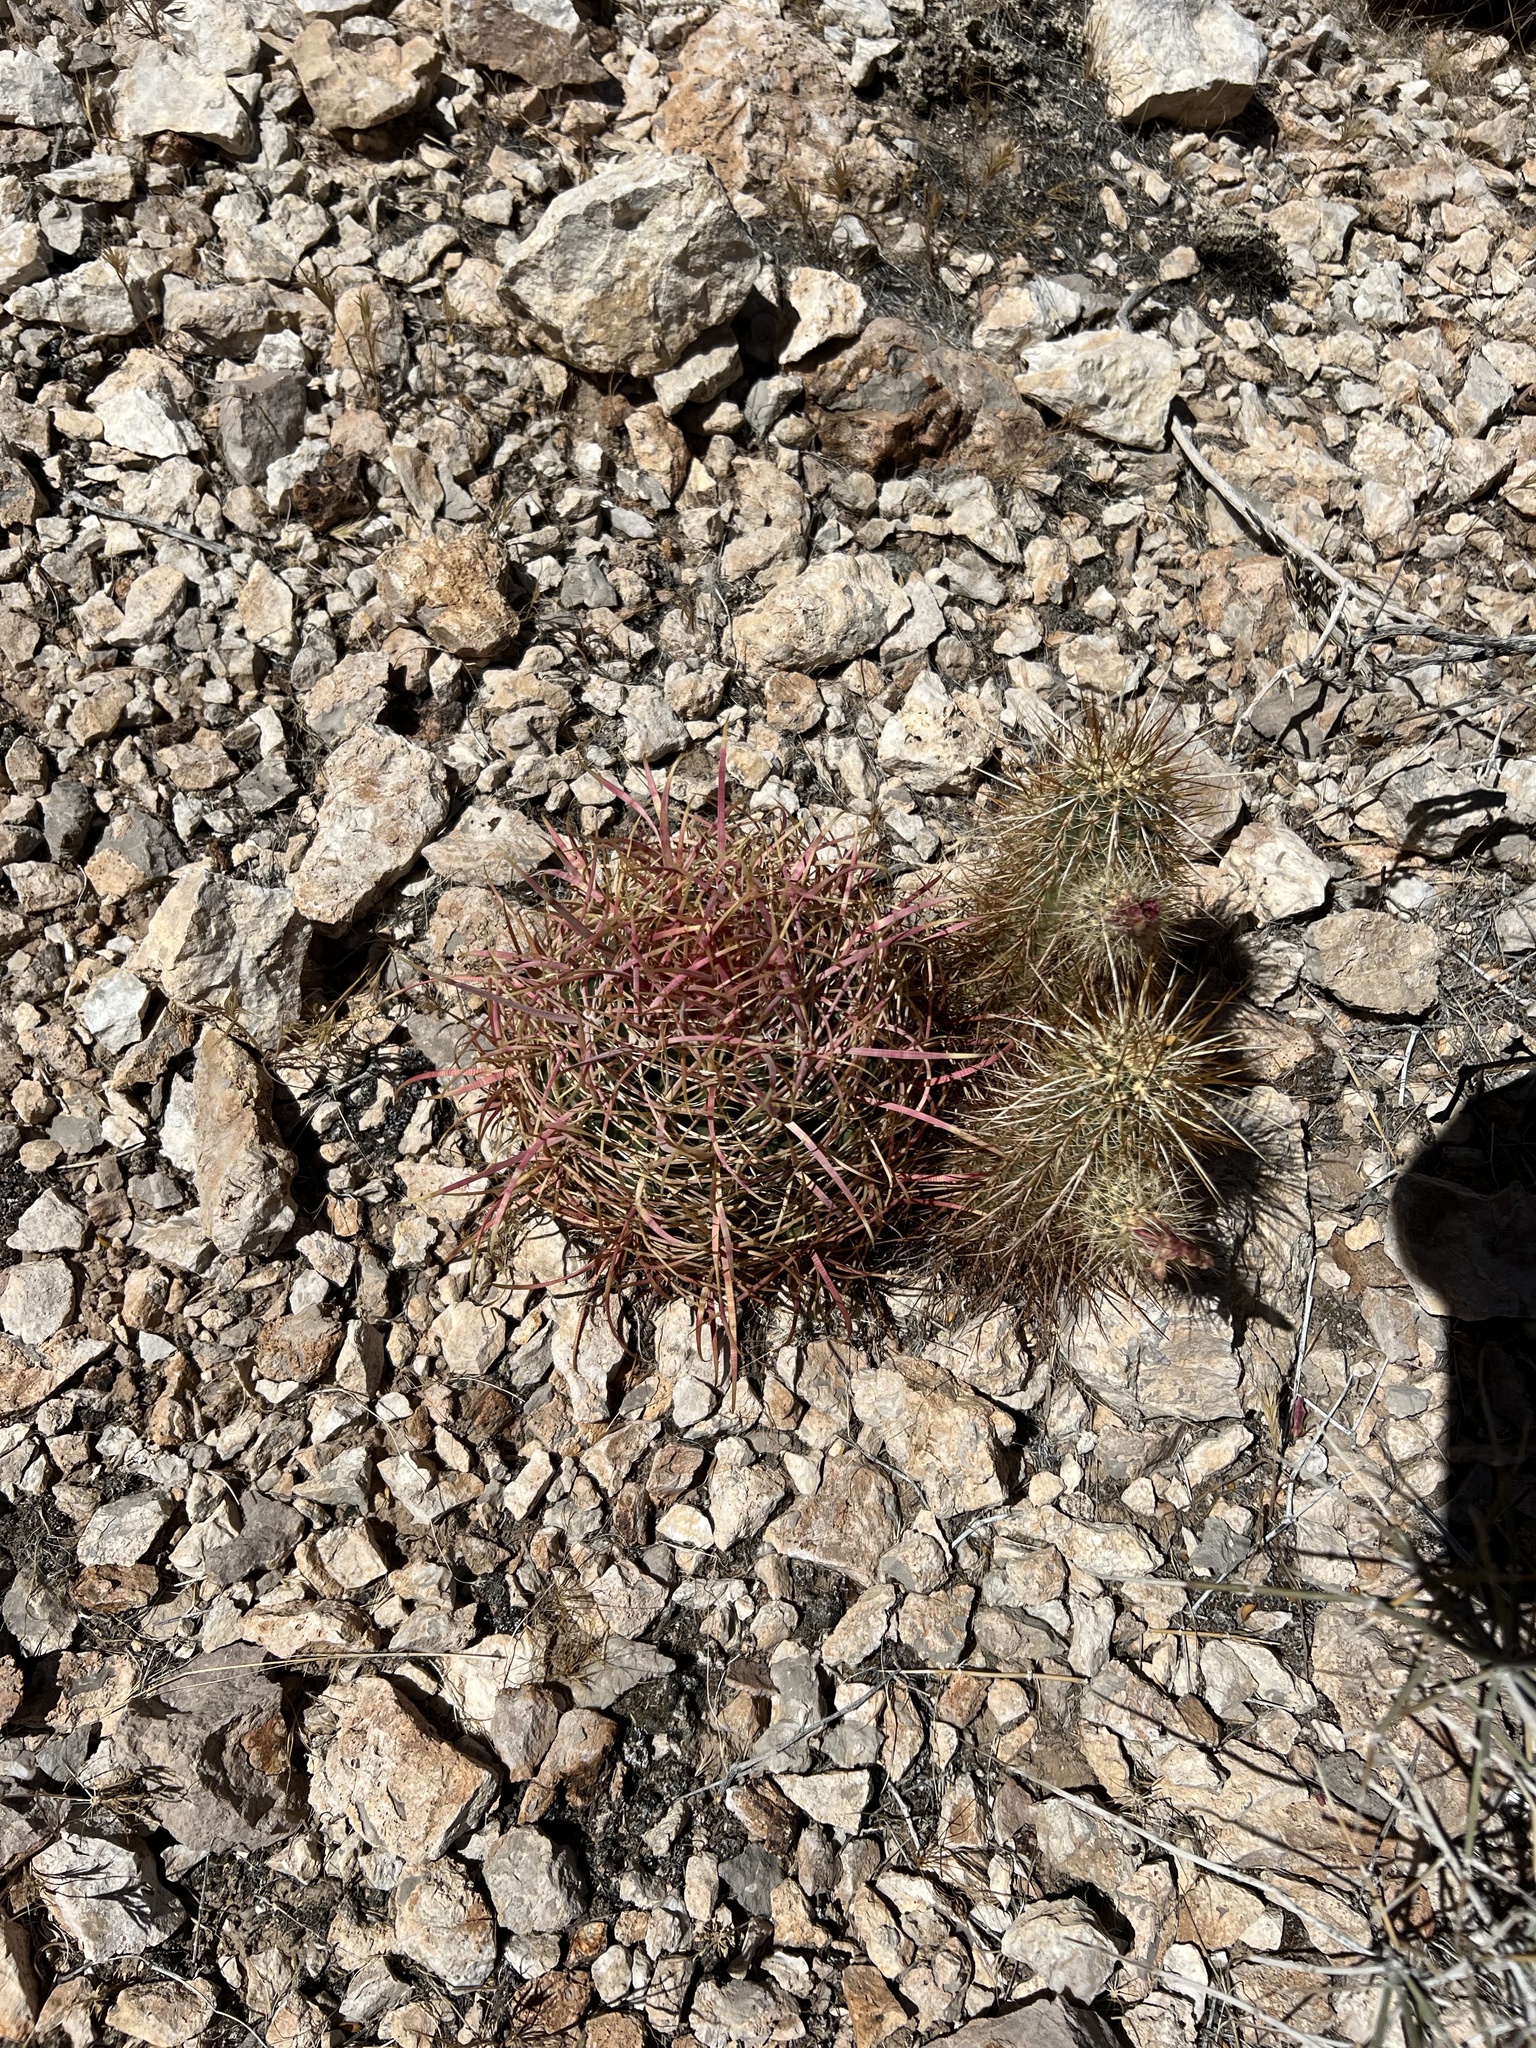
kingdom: Plantae
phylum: Tracheophyta
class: Magnoliopsida
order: Caryophyllales
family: Cactaceae
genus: Ferocactus
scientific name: Ferocactus cylindraceus
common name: California barrel cactus
